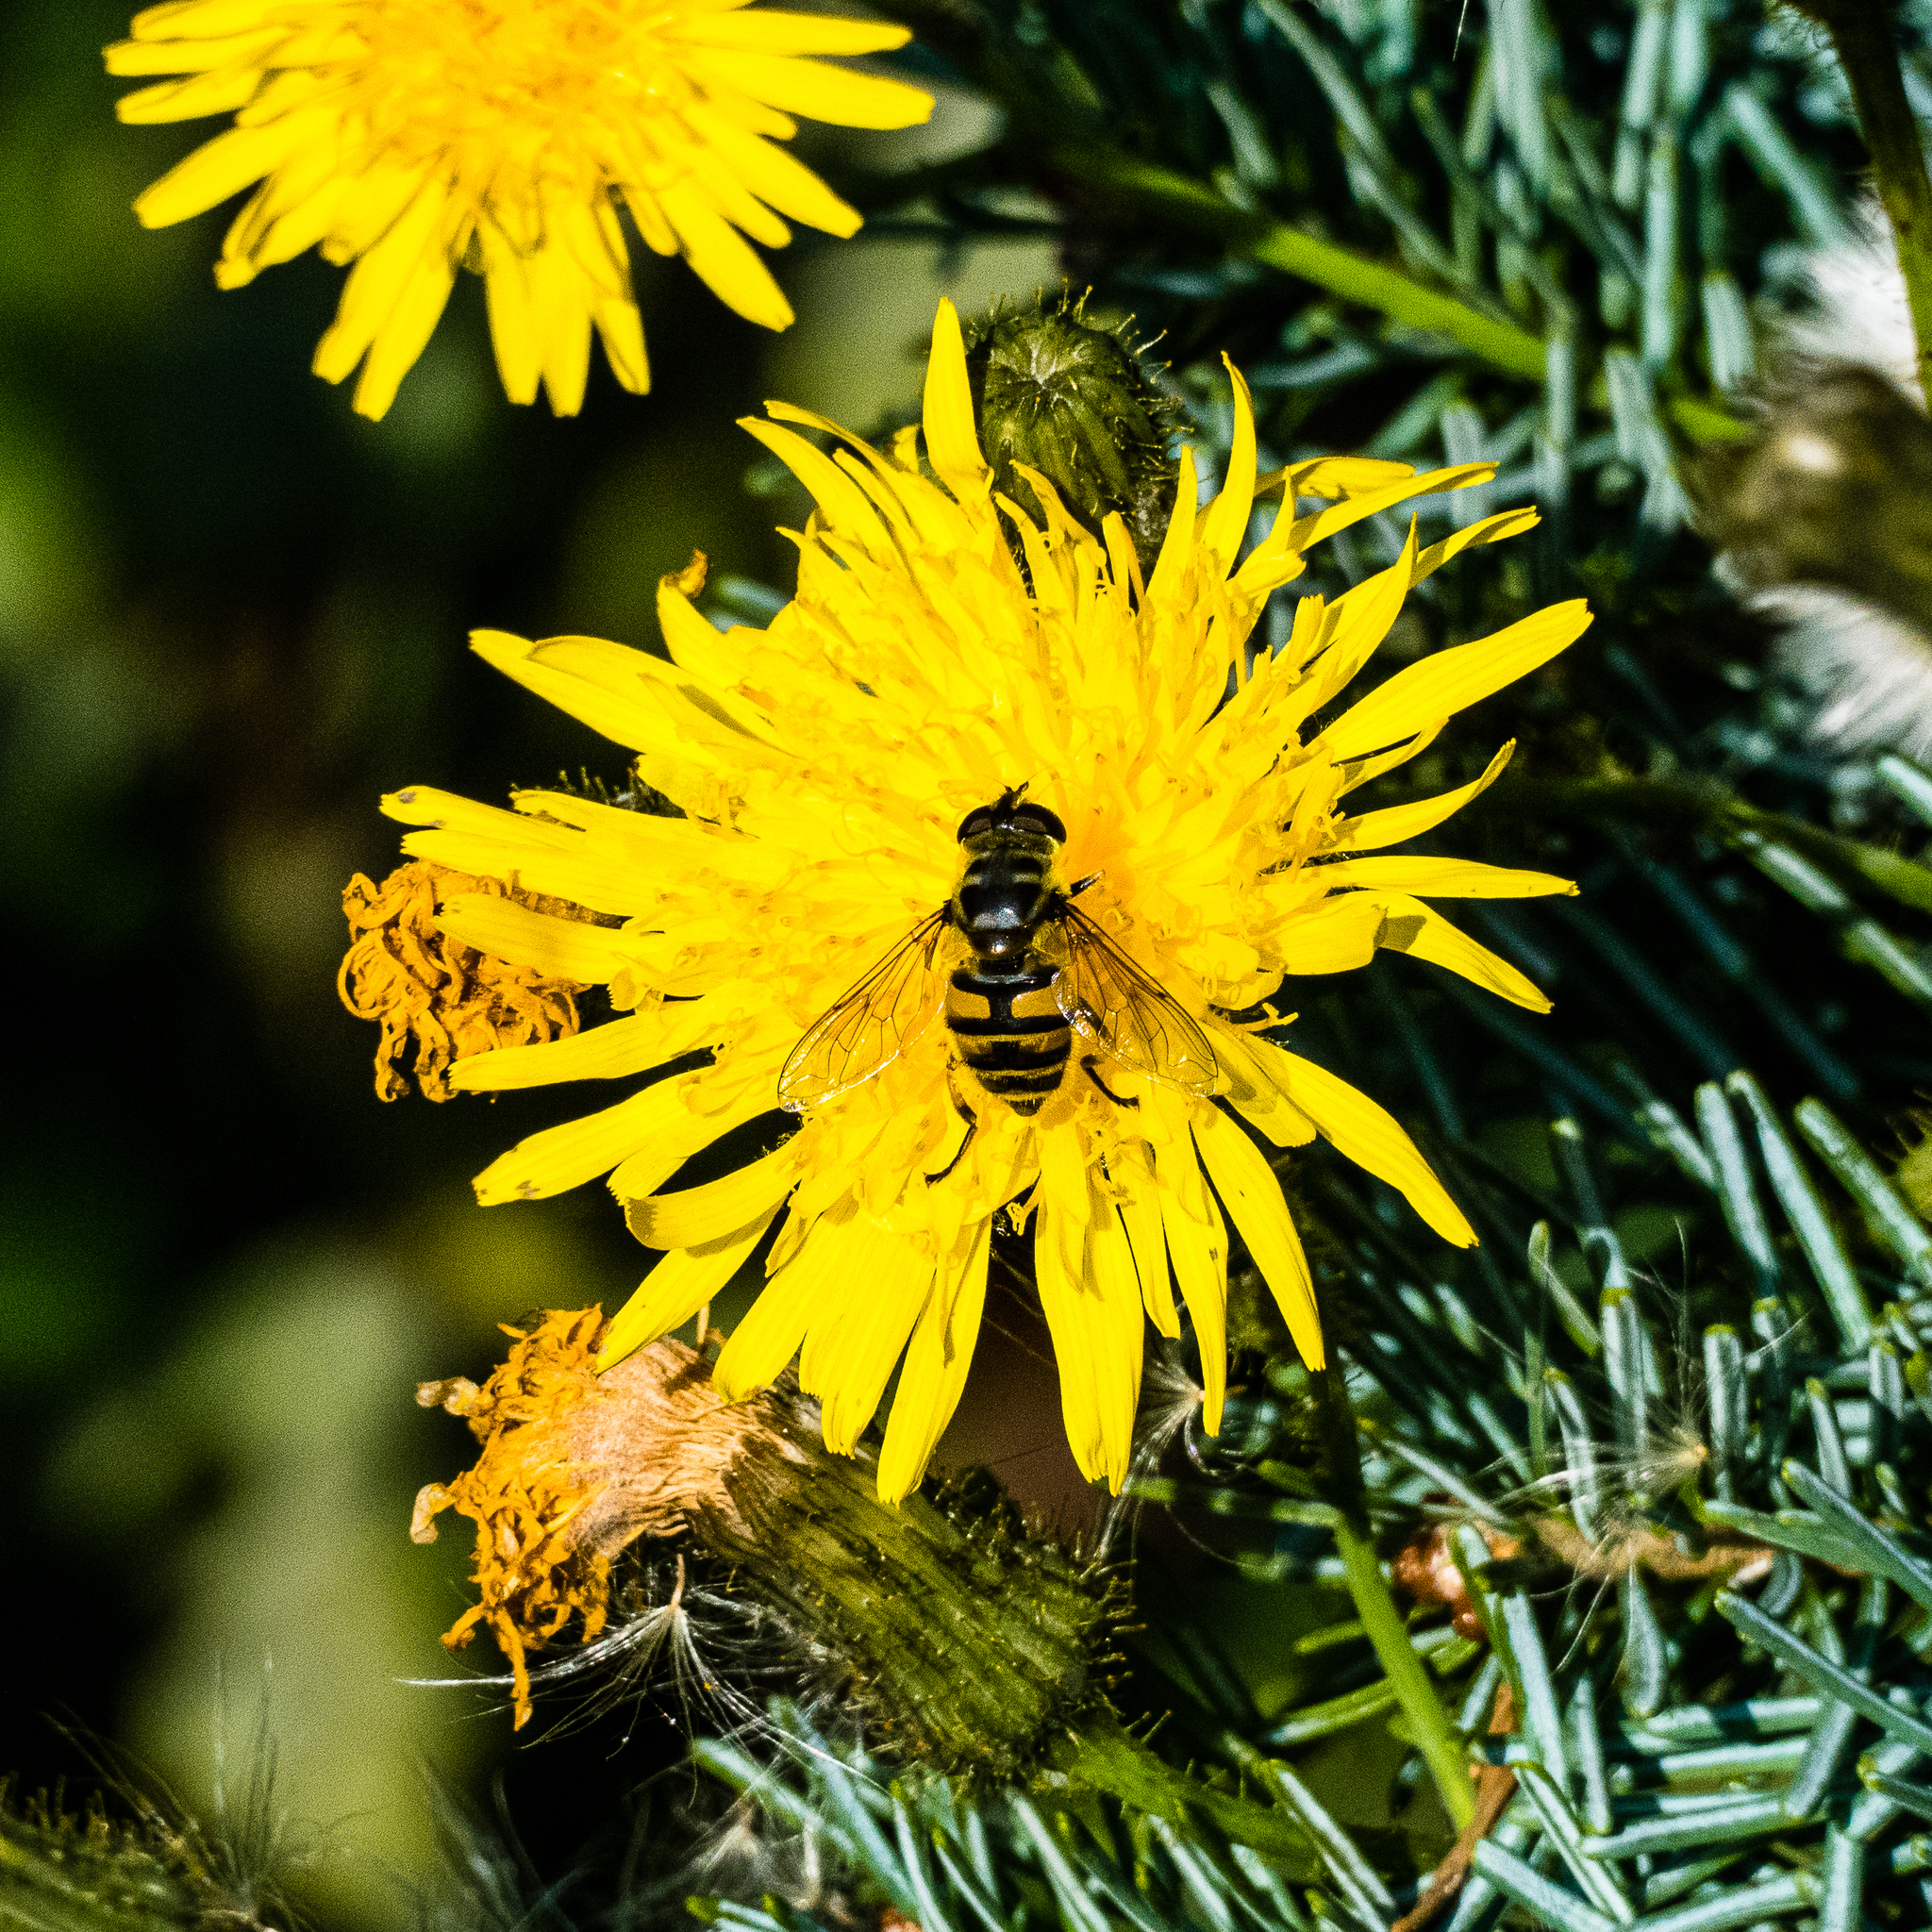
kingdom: Animalia
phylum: Arthropoda
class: Insecta
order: Diptera
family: Syrphidae
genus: Myathropa
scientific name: Myathropa florea
